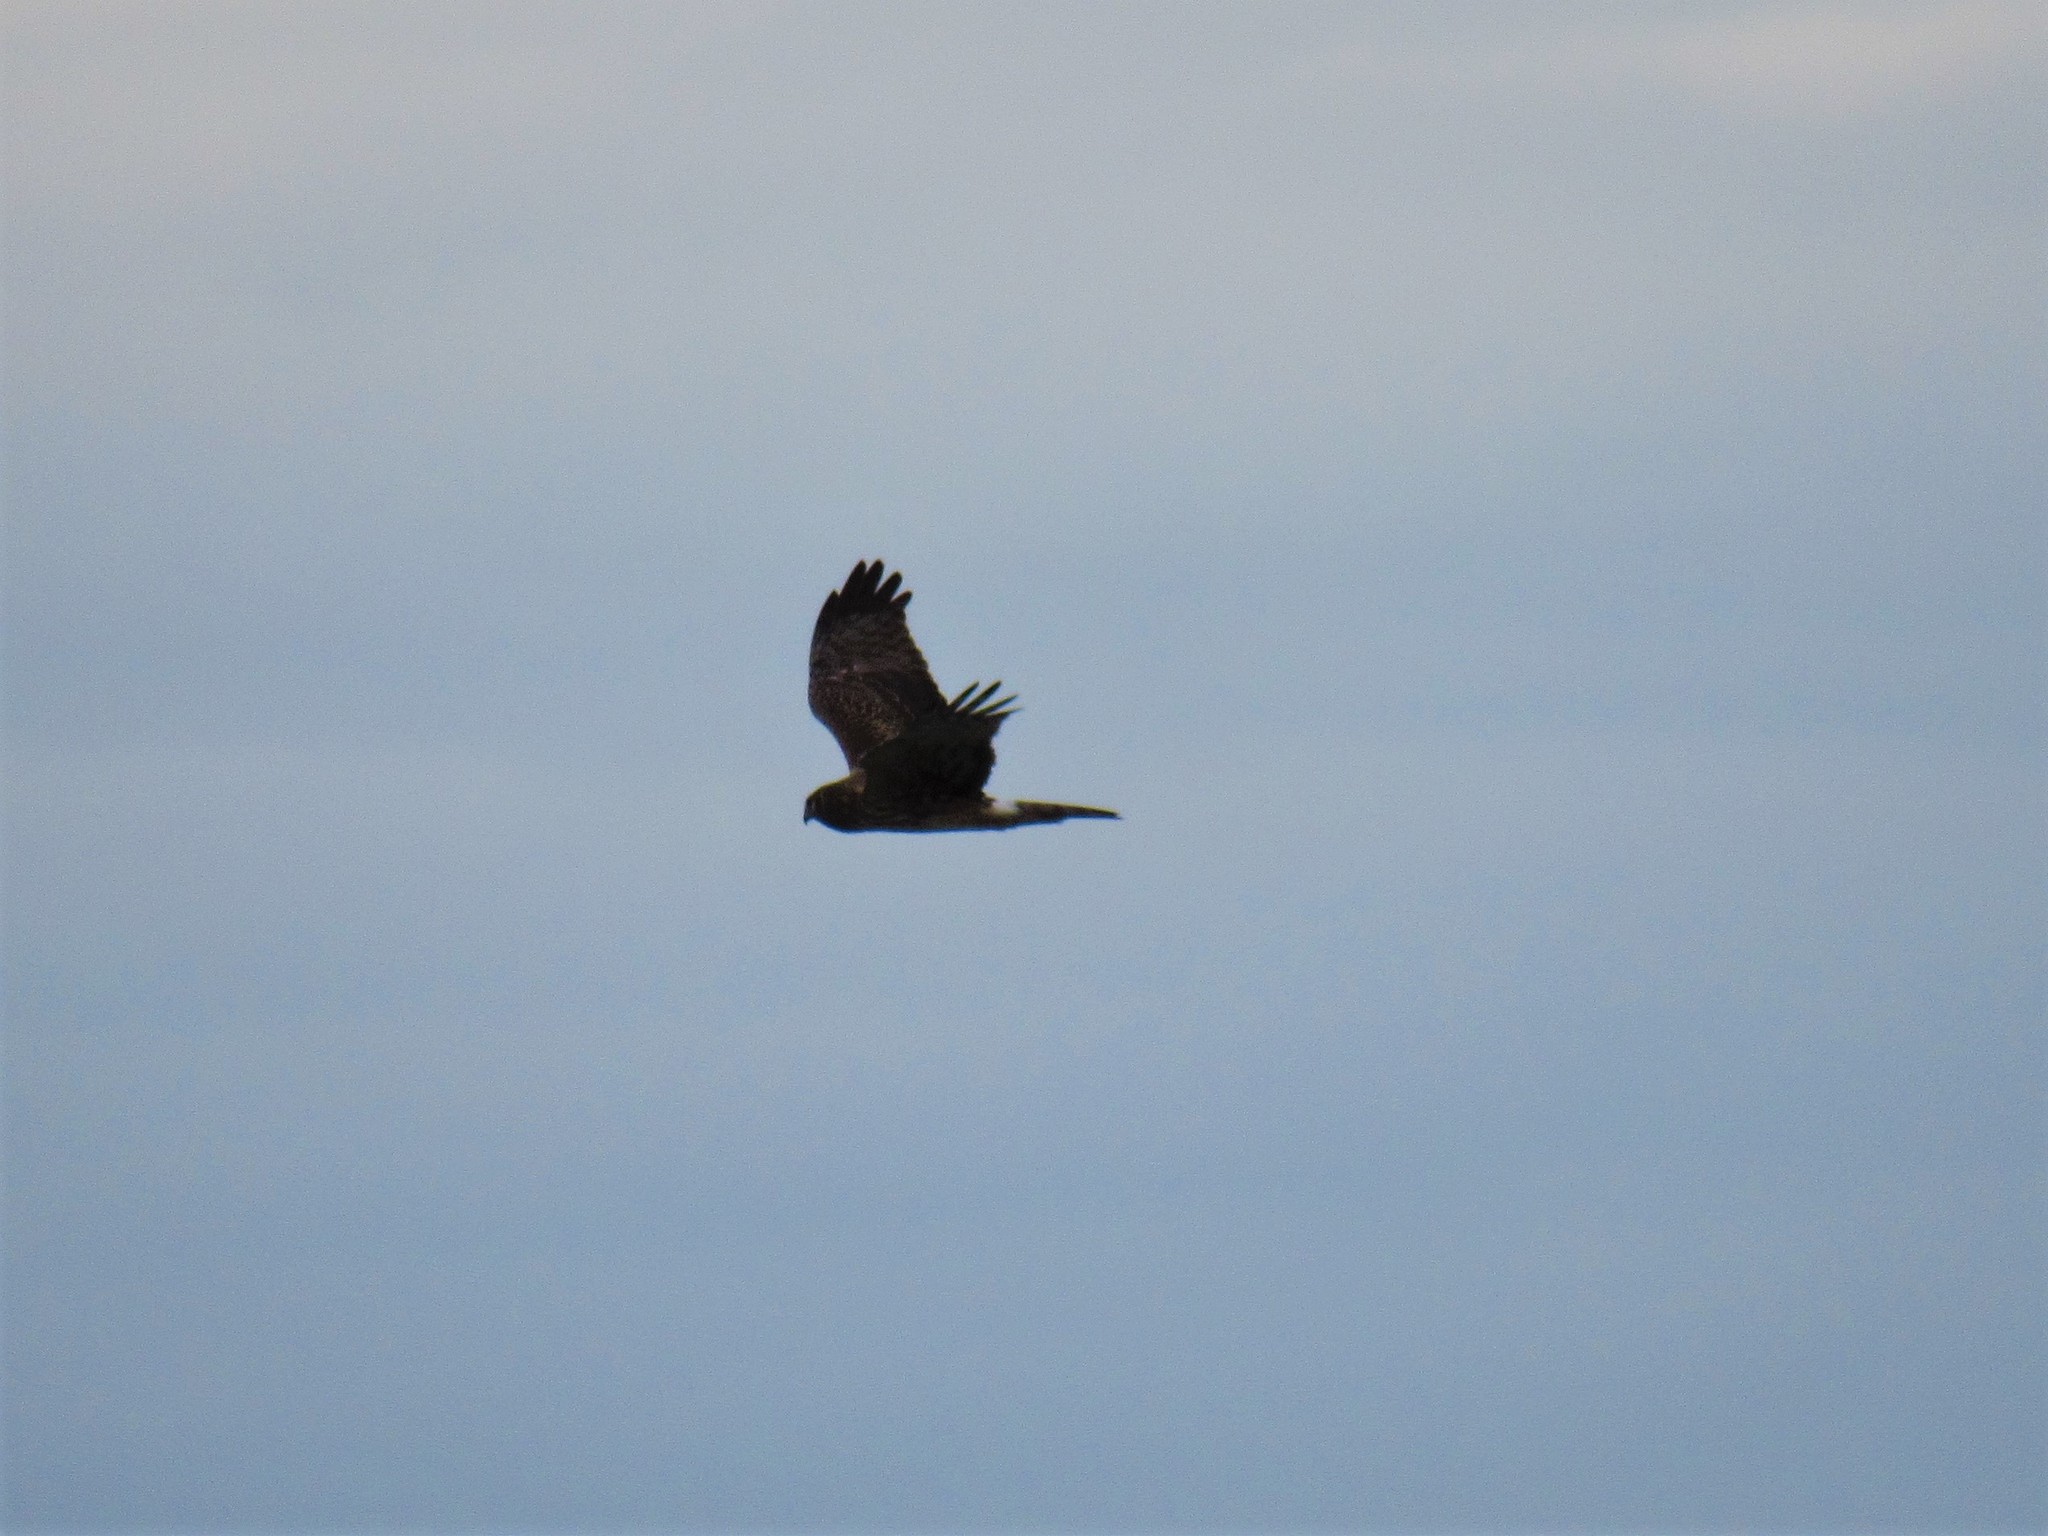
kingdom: Animalia
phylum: Chordata
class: Aves
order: Accipitriformes
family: Accipitridae
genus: Circus
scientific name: Circus cyaneus
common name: Hen harrier
